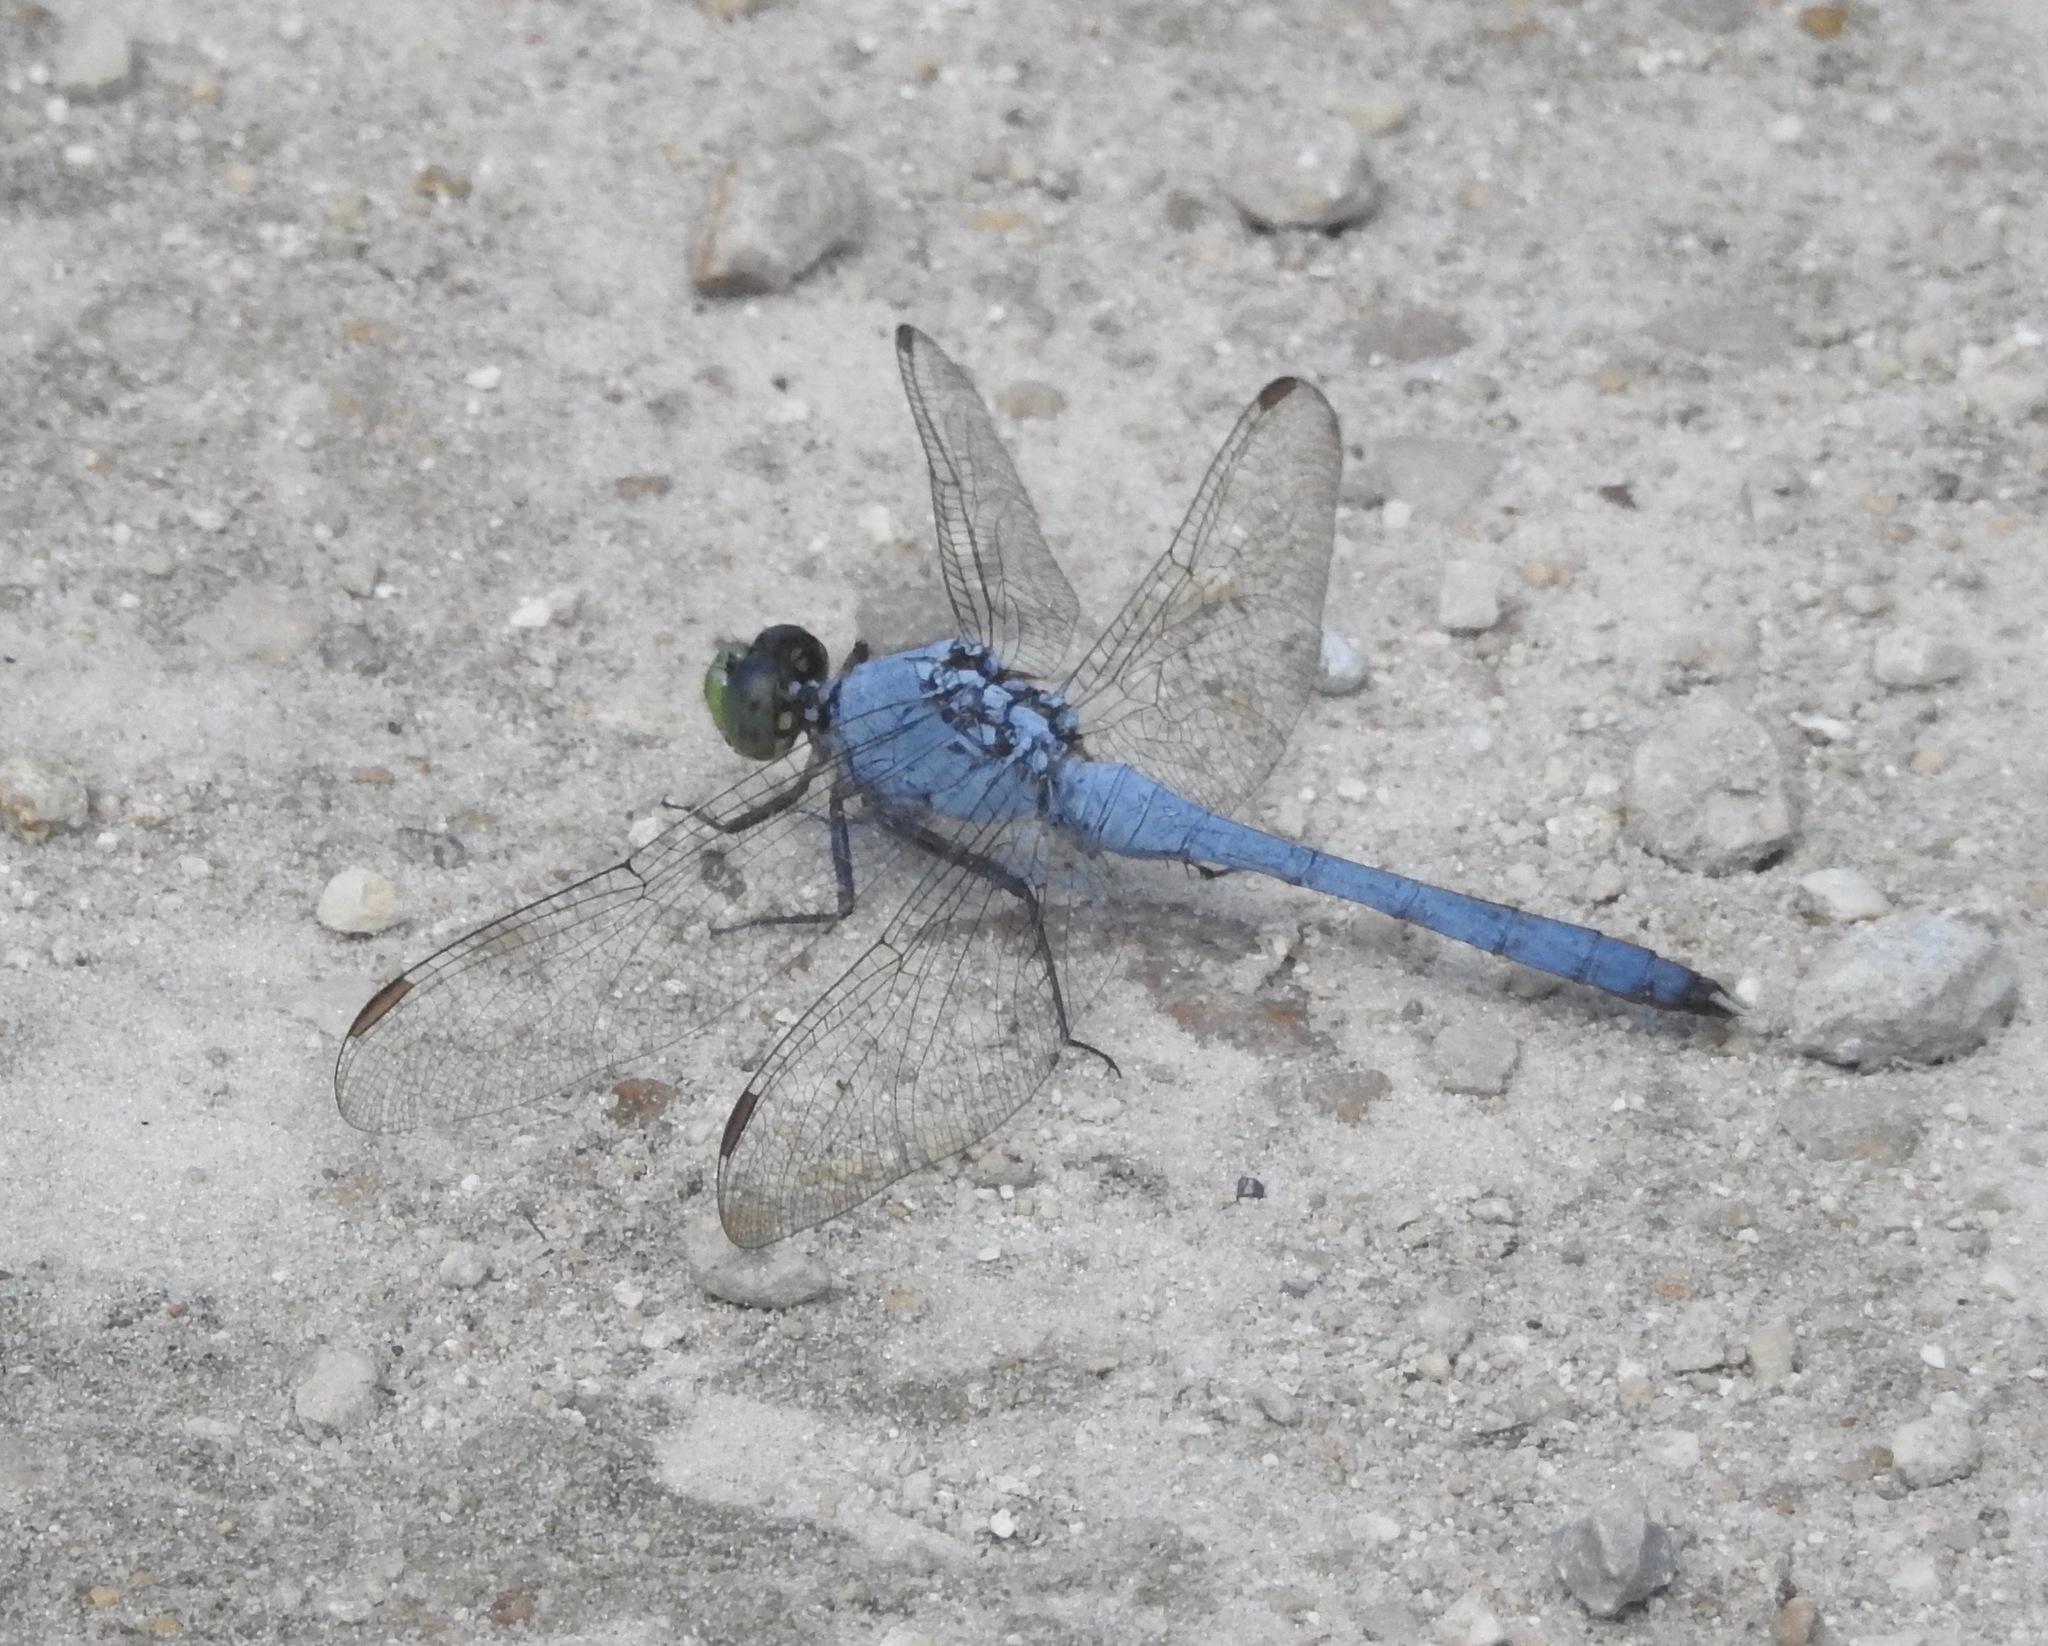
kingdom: Animalia
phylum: Arthropoda
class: Insecta
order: Odonata
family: Libellulidae
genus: Erythemis
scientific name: Erythemis simplicicollis
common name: Eastern pondhawk
